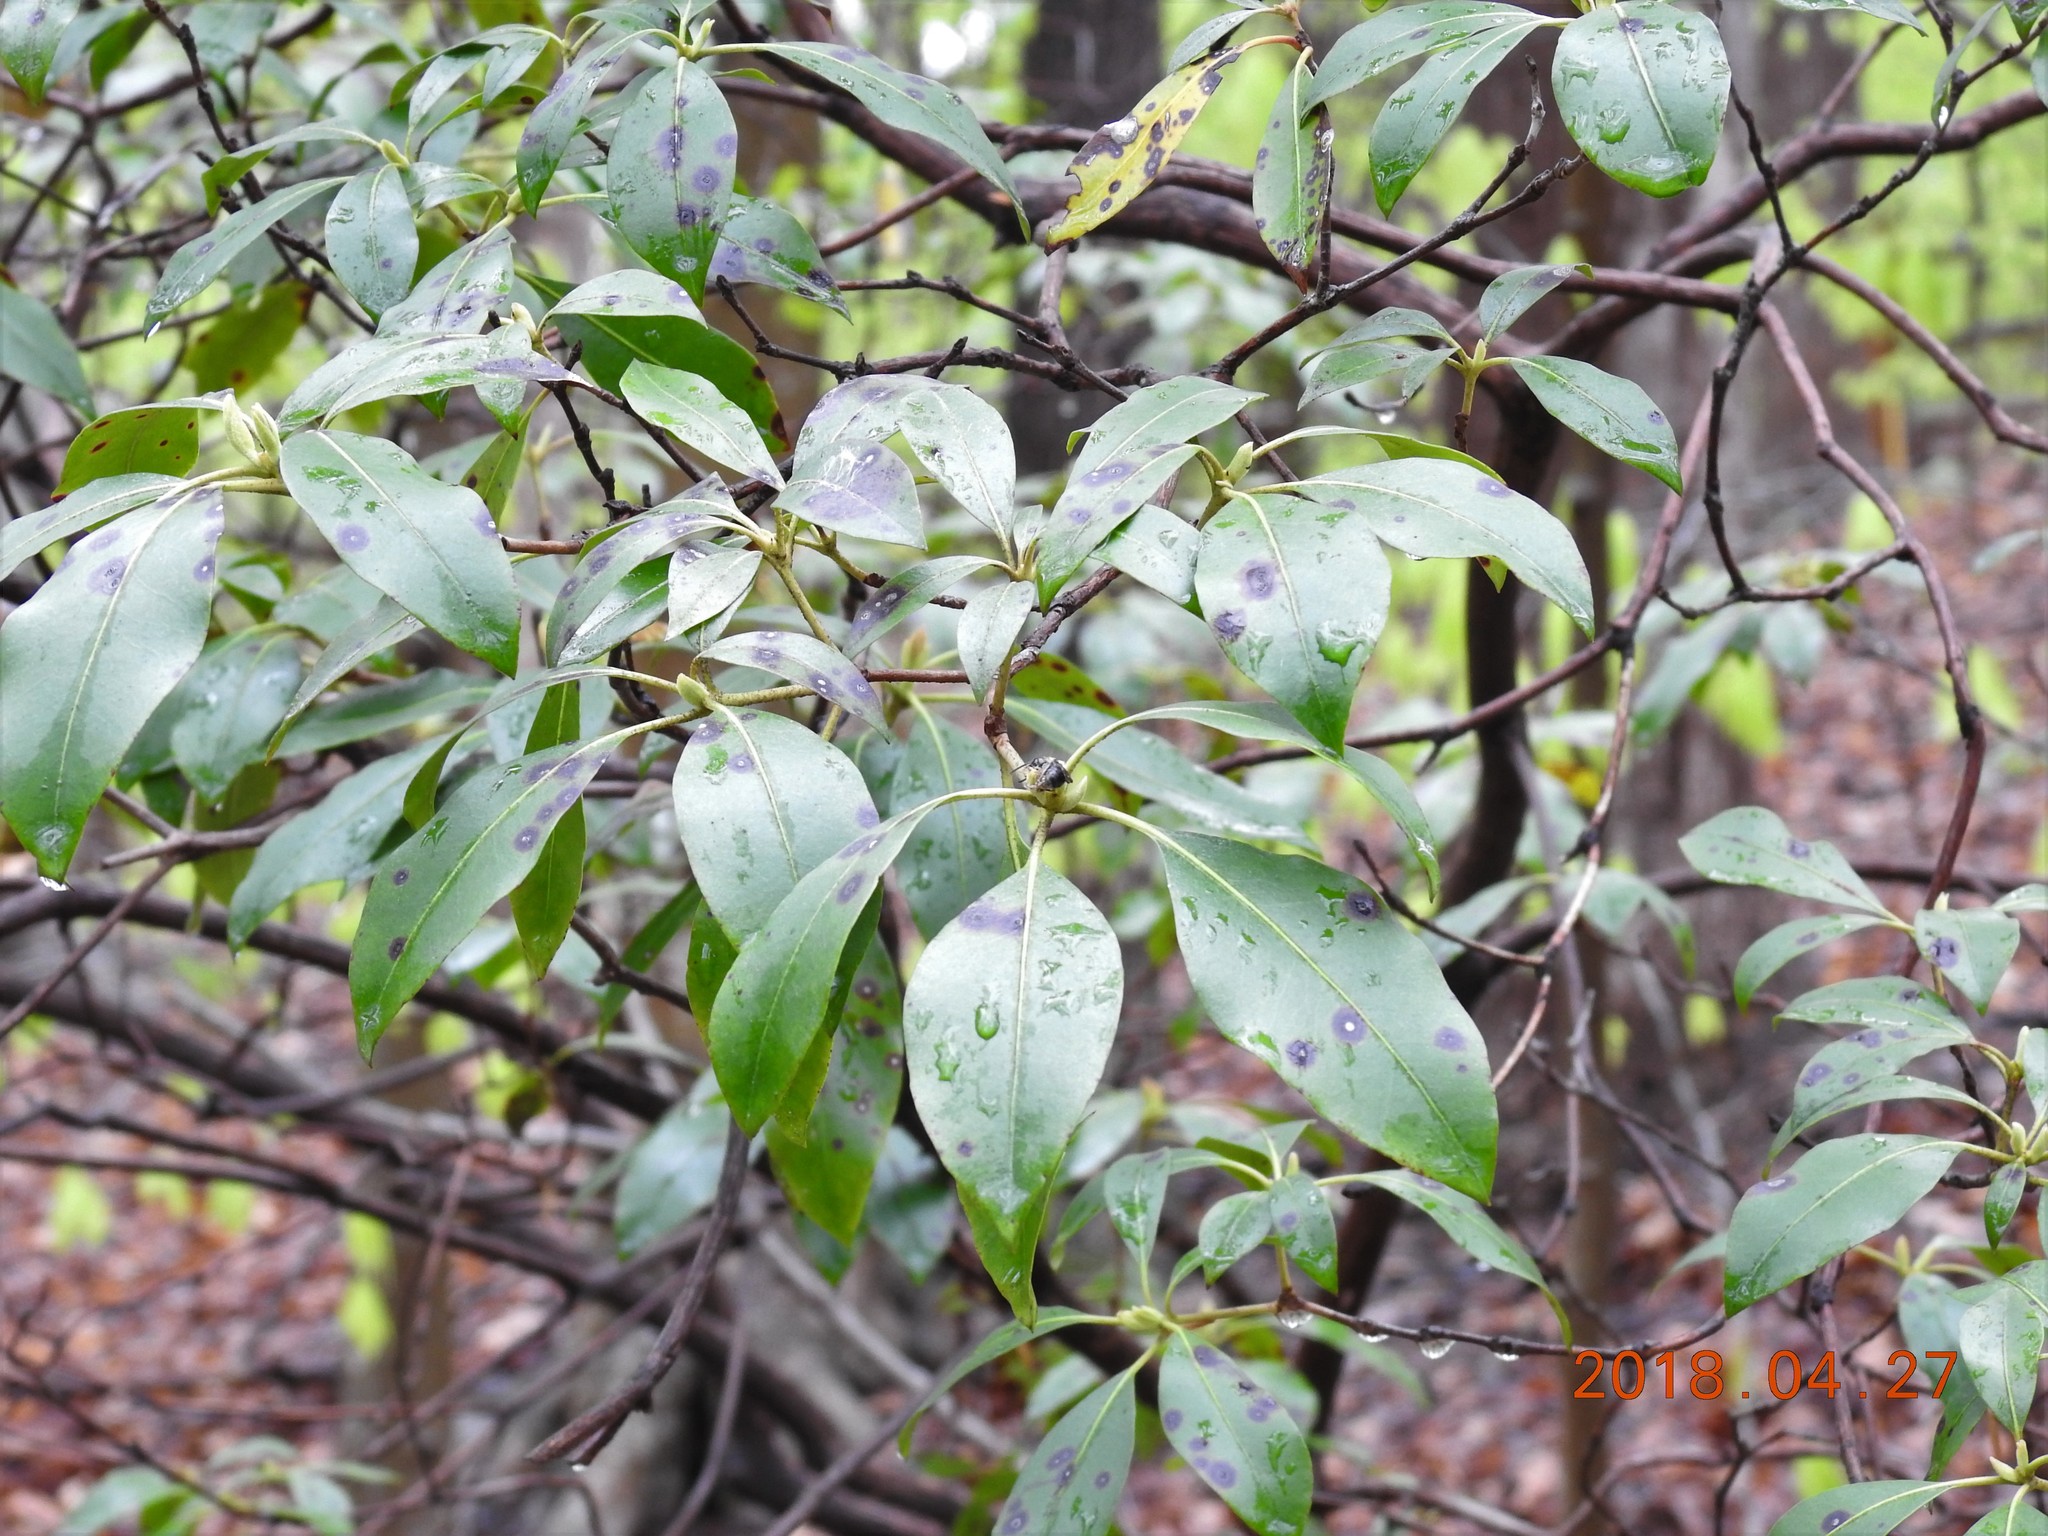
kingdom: Plantae
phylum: Tracheophyta
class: Magnoliopsida
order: Ericales
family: Ericaceae
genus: Kalmia
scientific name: Kalmia latifolia
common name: Mountain-laurel
